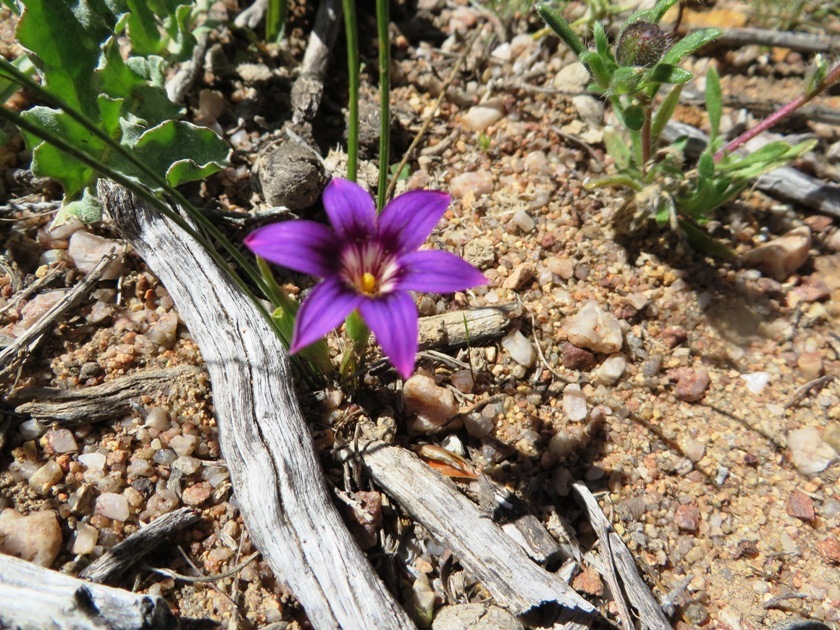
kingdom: Plantae
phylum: Tracheophyta
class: Liliopsida
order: Asparagales
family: Iridaceae
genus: Romulea
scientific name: Romulea kamisensis
